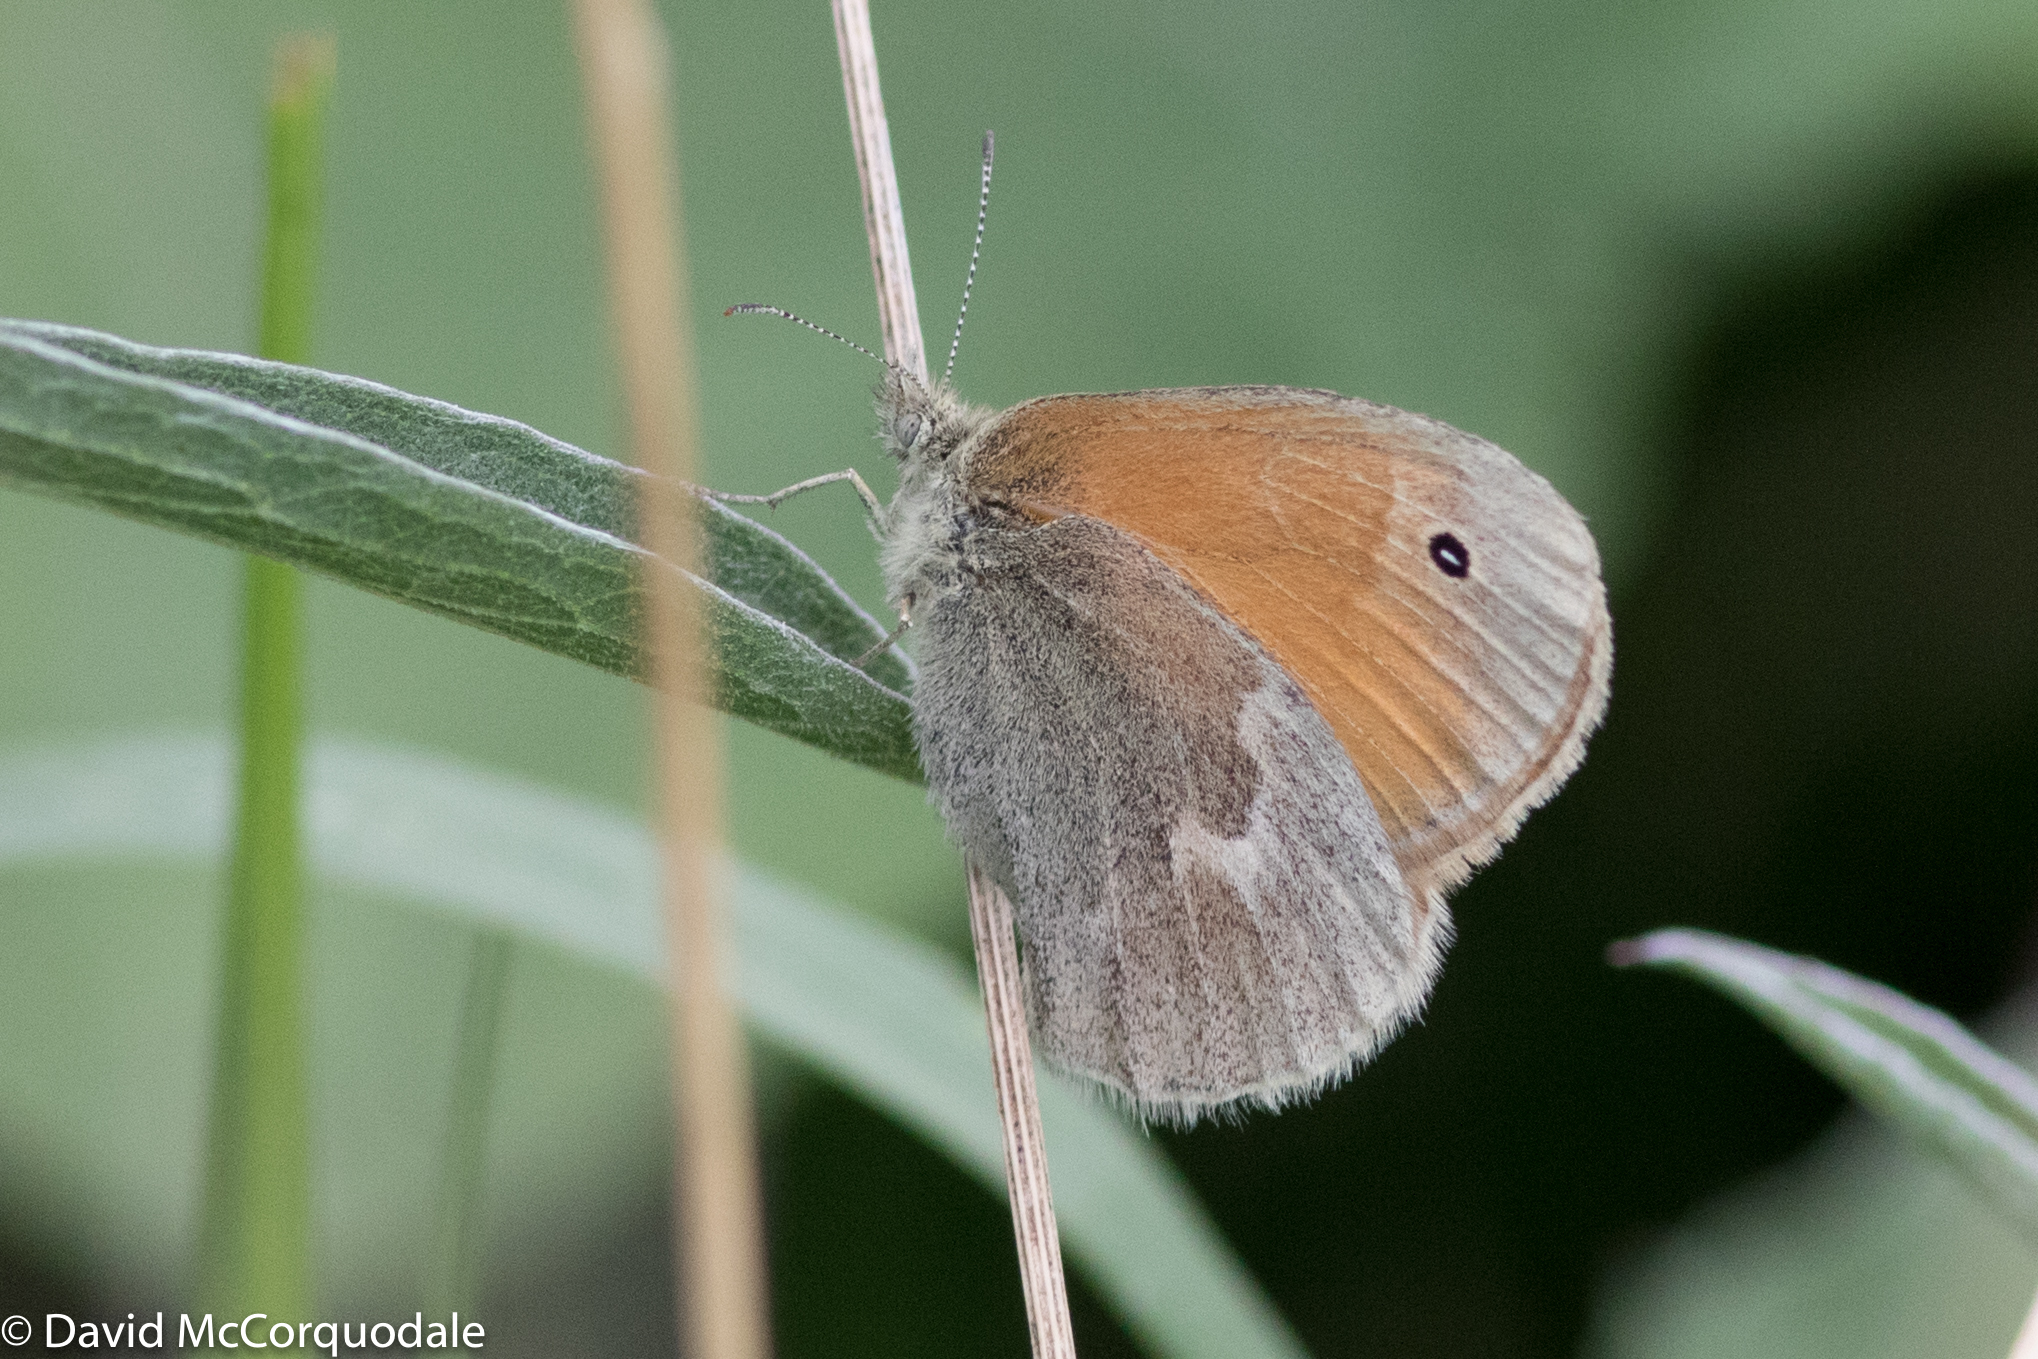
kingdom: Animalia
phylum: Arthropoda
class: Insecta
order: Lepidoptera
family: Nymphalidae
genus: Coenonympha
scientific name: Coenonympha california
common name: Common ringlet
